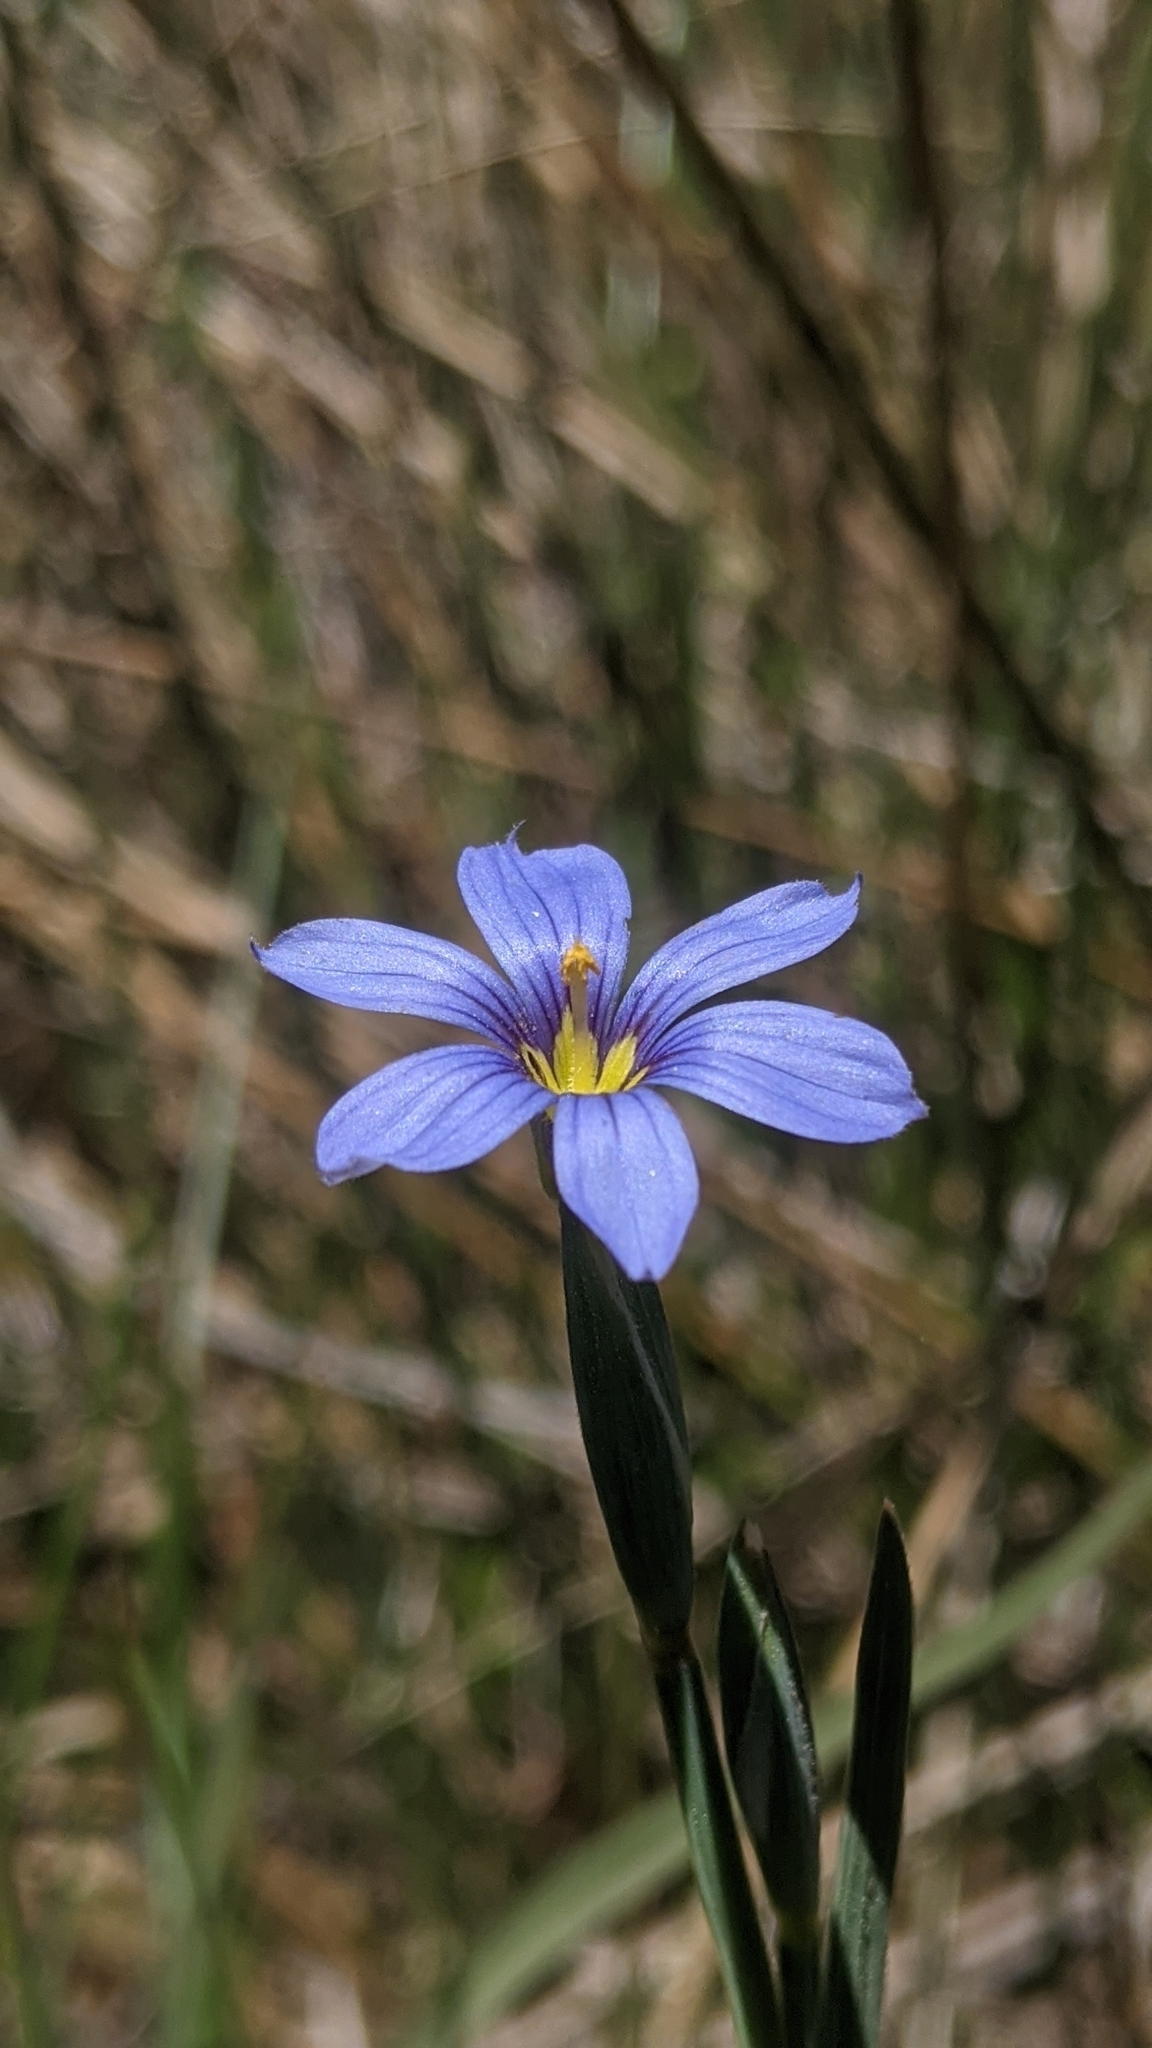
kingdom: Plantae
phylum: Tracheophyta
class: Liliopsida
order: Asparagales
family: Iridaceae
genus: Sisyrinchium
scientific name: Sisyrinchium bellum
